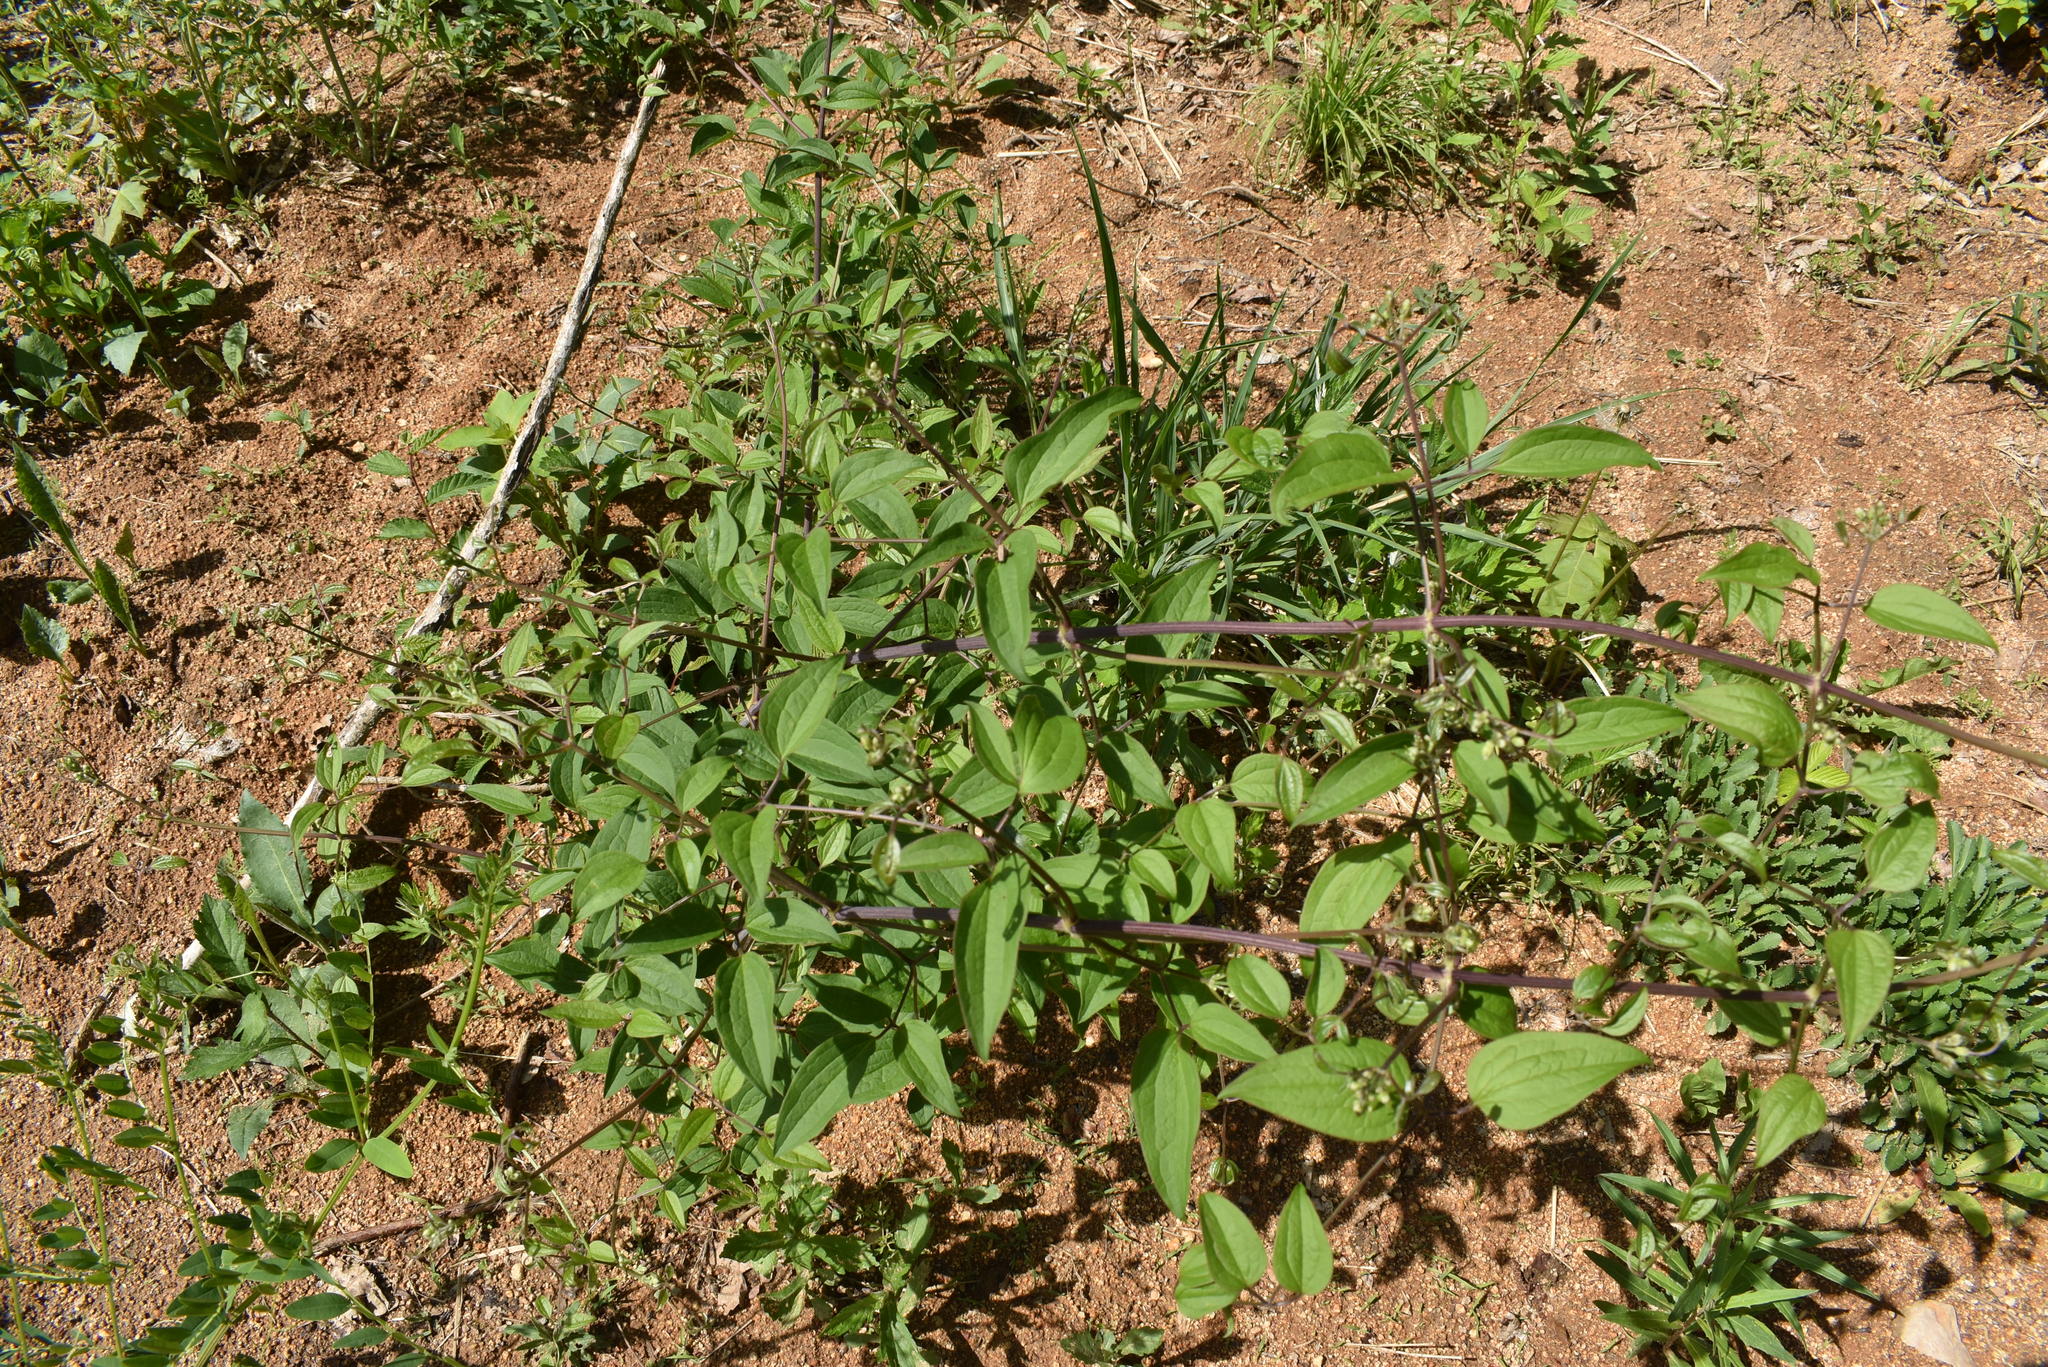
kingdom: Plantae
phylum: Tracheophyta
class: Magnoliopsida
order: Ranunculales
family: Ranunculaceae
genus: Clematis
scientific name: Clematis terniflora
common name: Sweet autumn clematis
